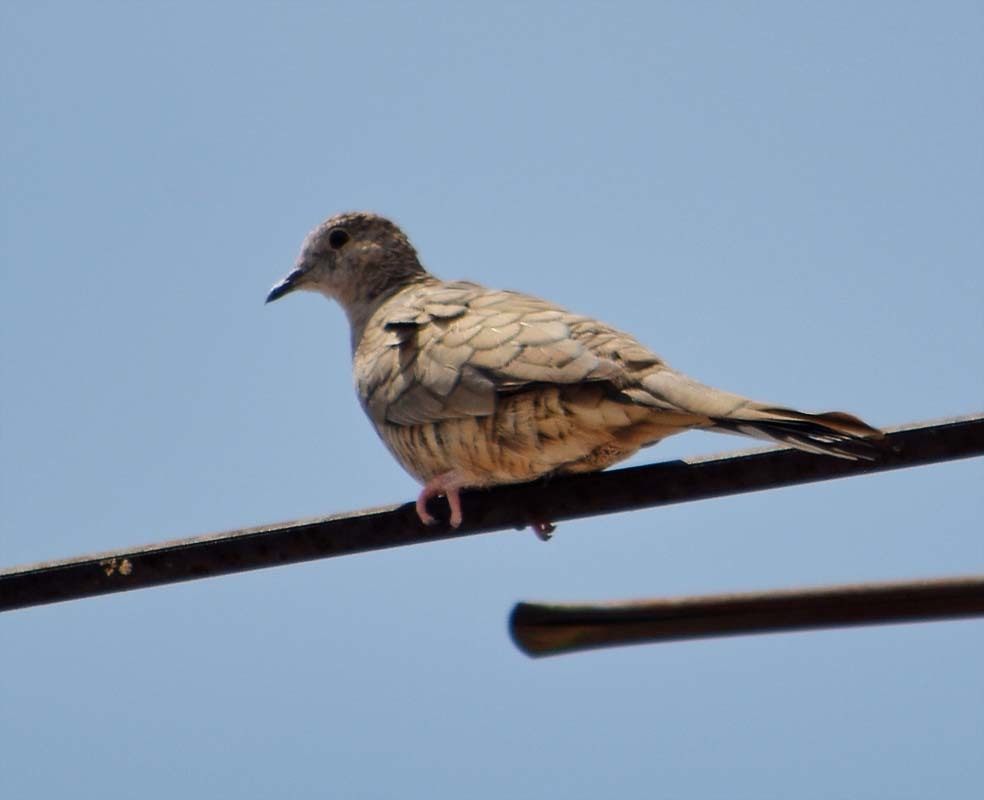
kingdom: Animalia
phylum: Chordata
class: Aves
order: Columbiformes
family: Columbidae
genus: Columbina
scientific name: Columbina inca
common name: Inca dove
